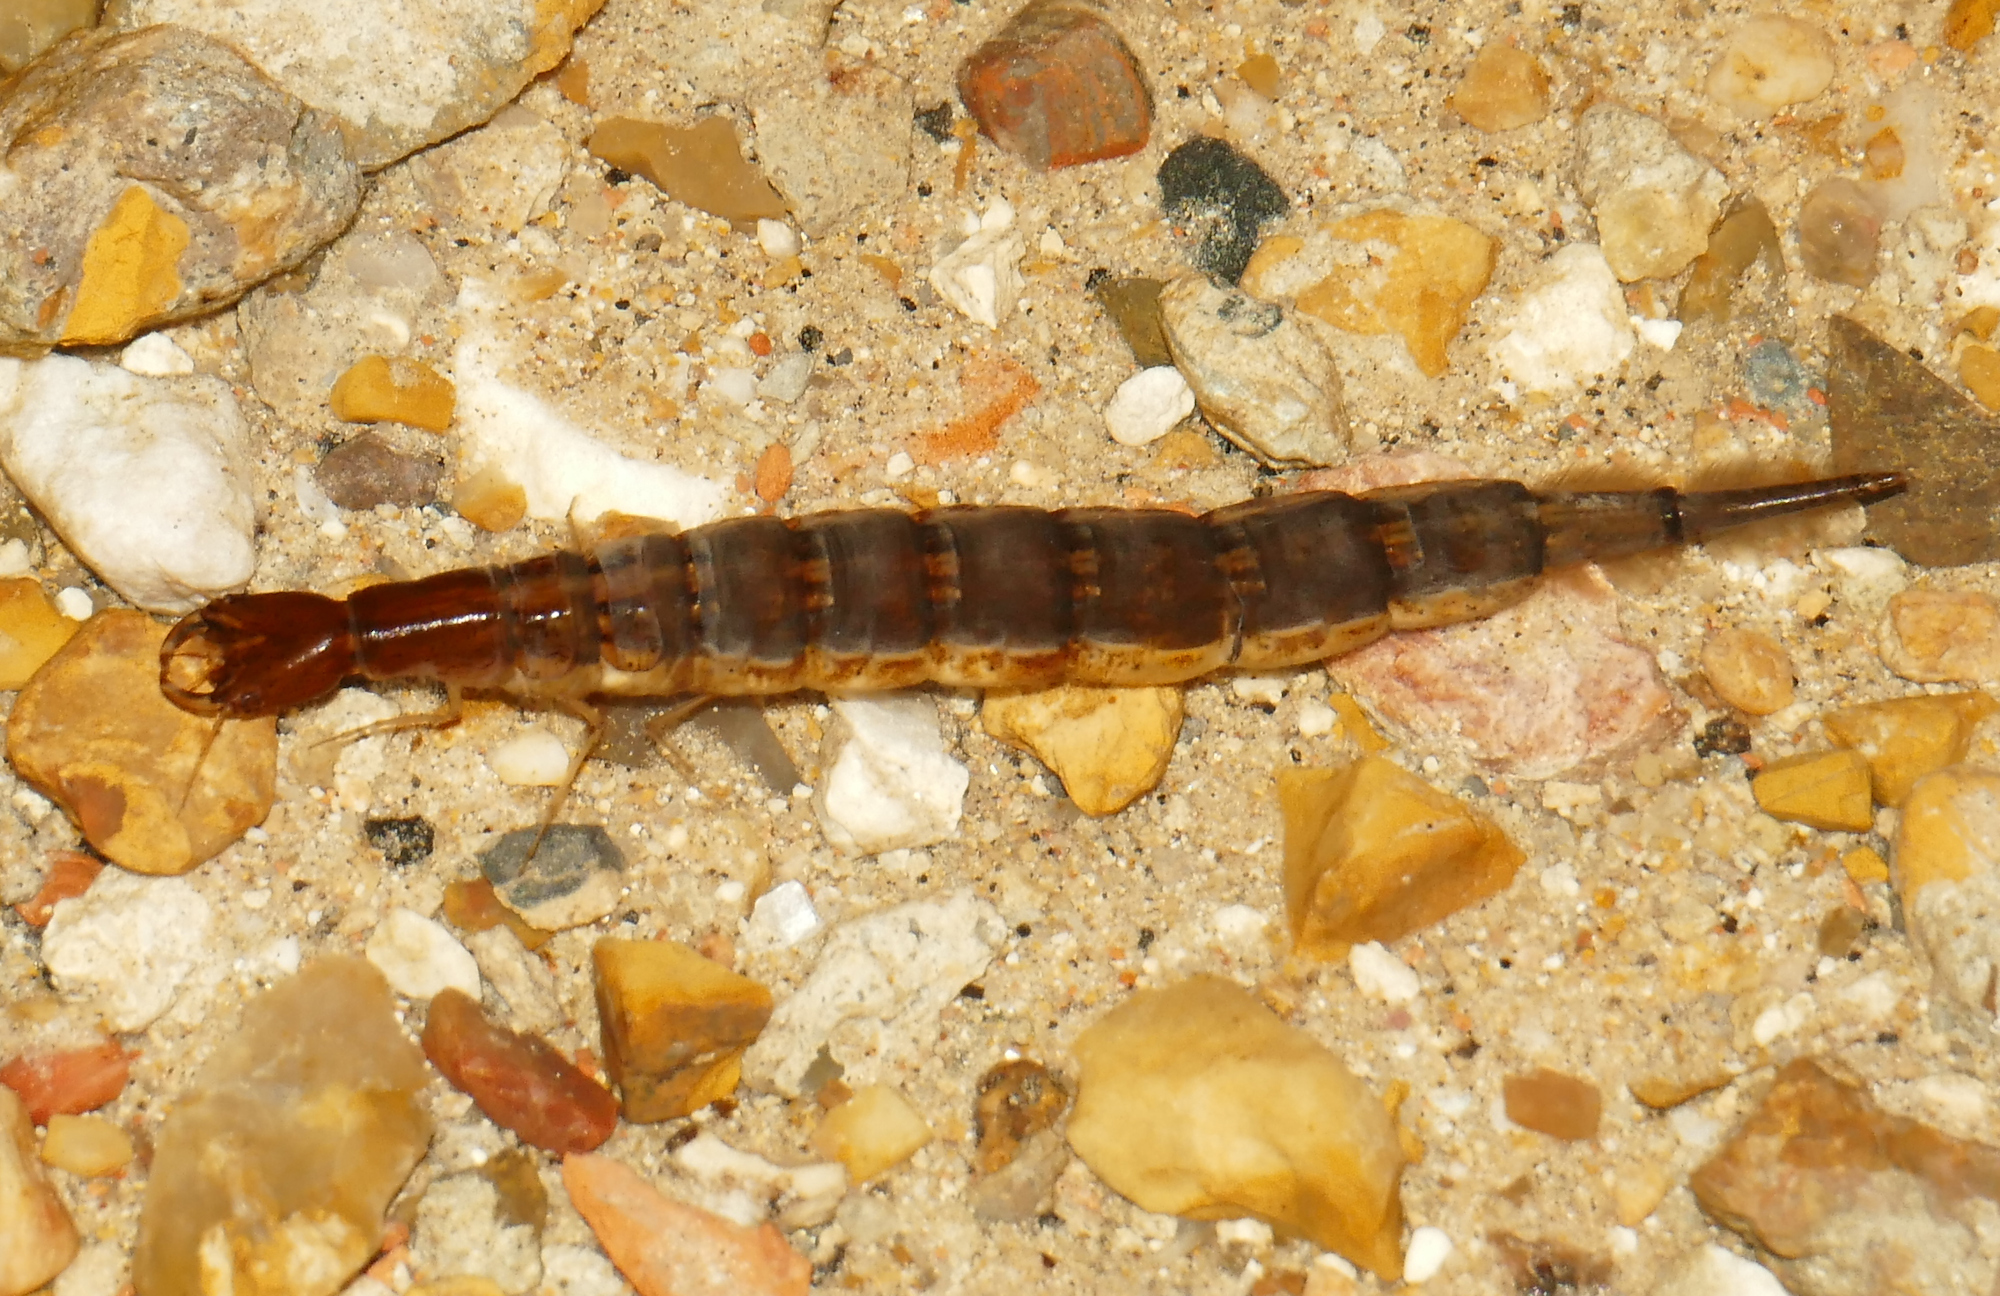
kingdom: Animalia
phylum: Arthropoda
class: Insecta
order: Coleoptera
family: Dytiscidae
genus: Cybister
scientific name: Cybister fimbriolatus
